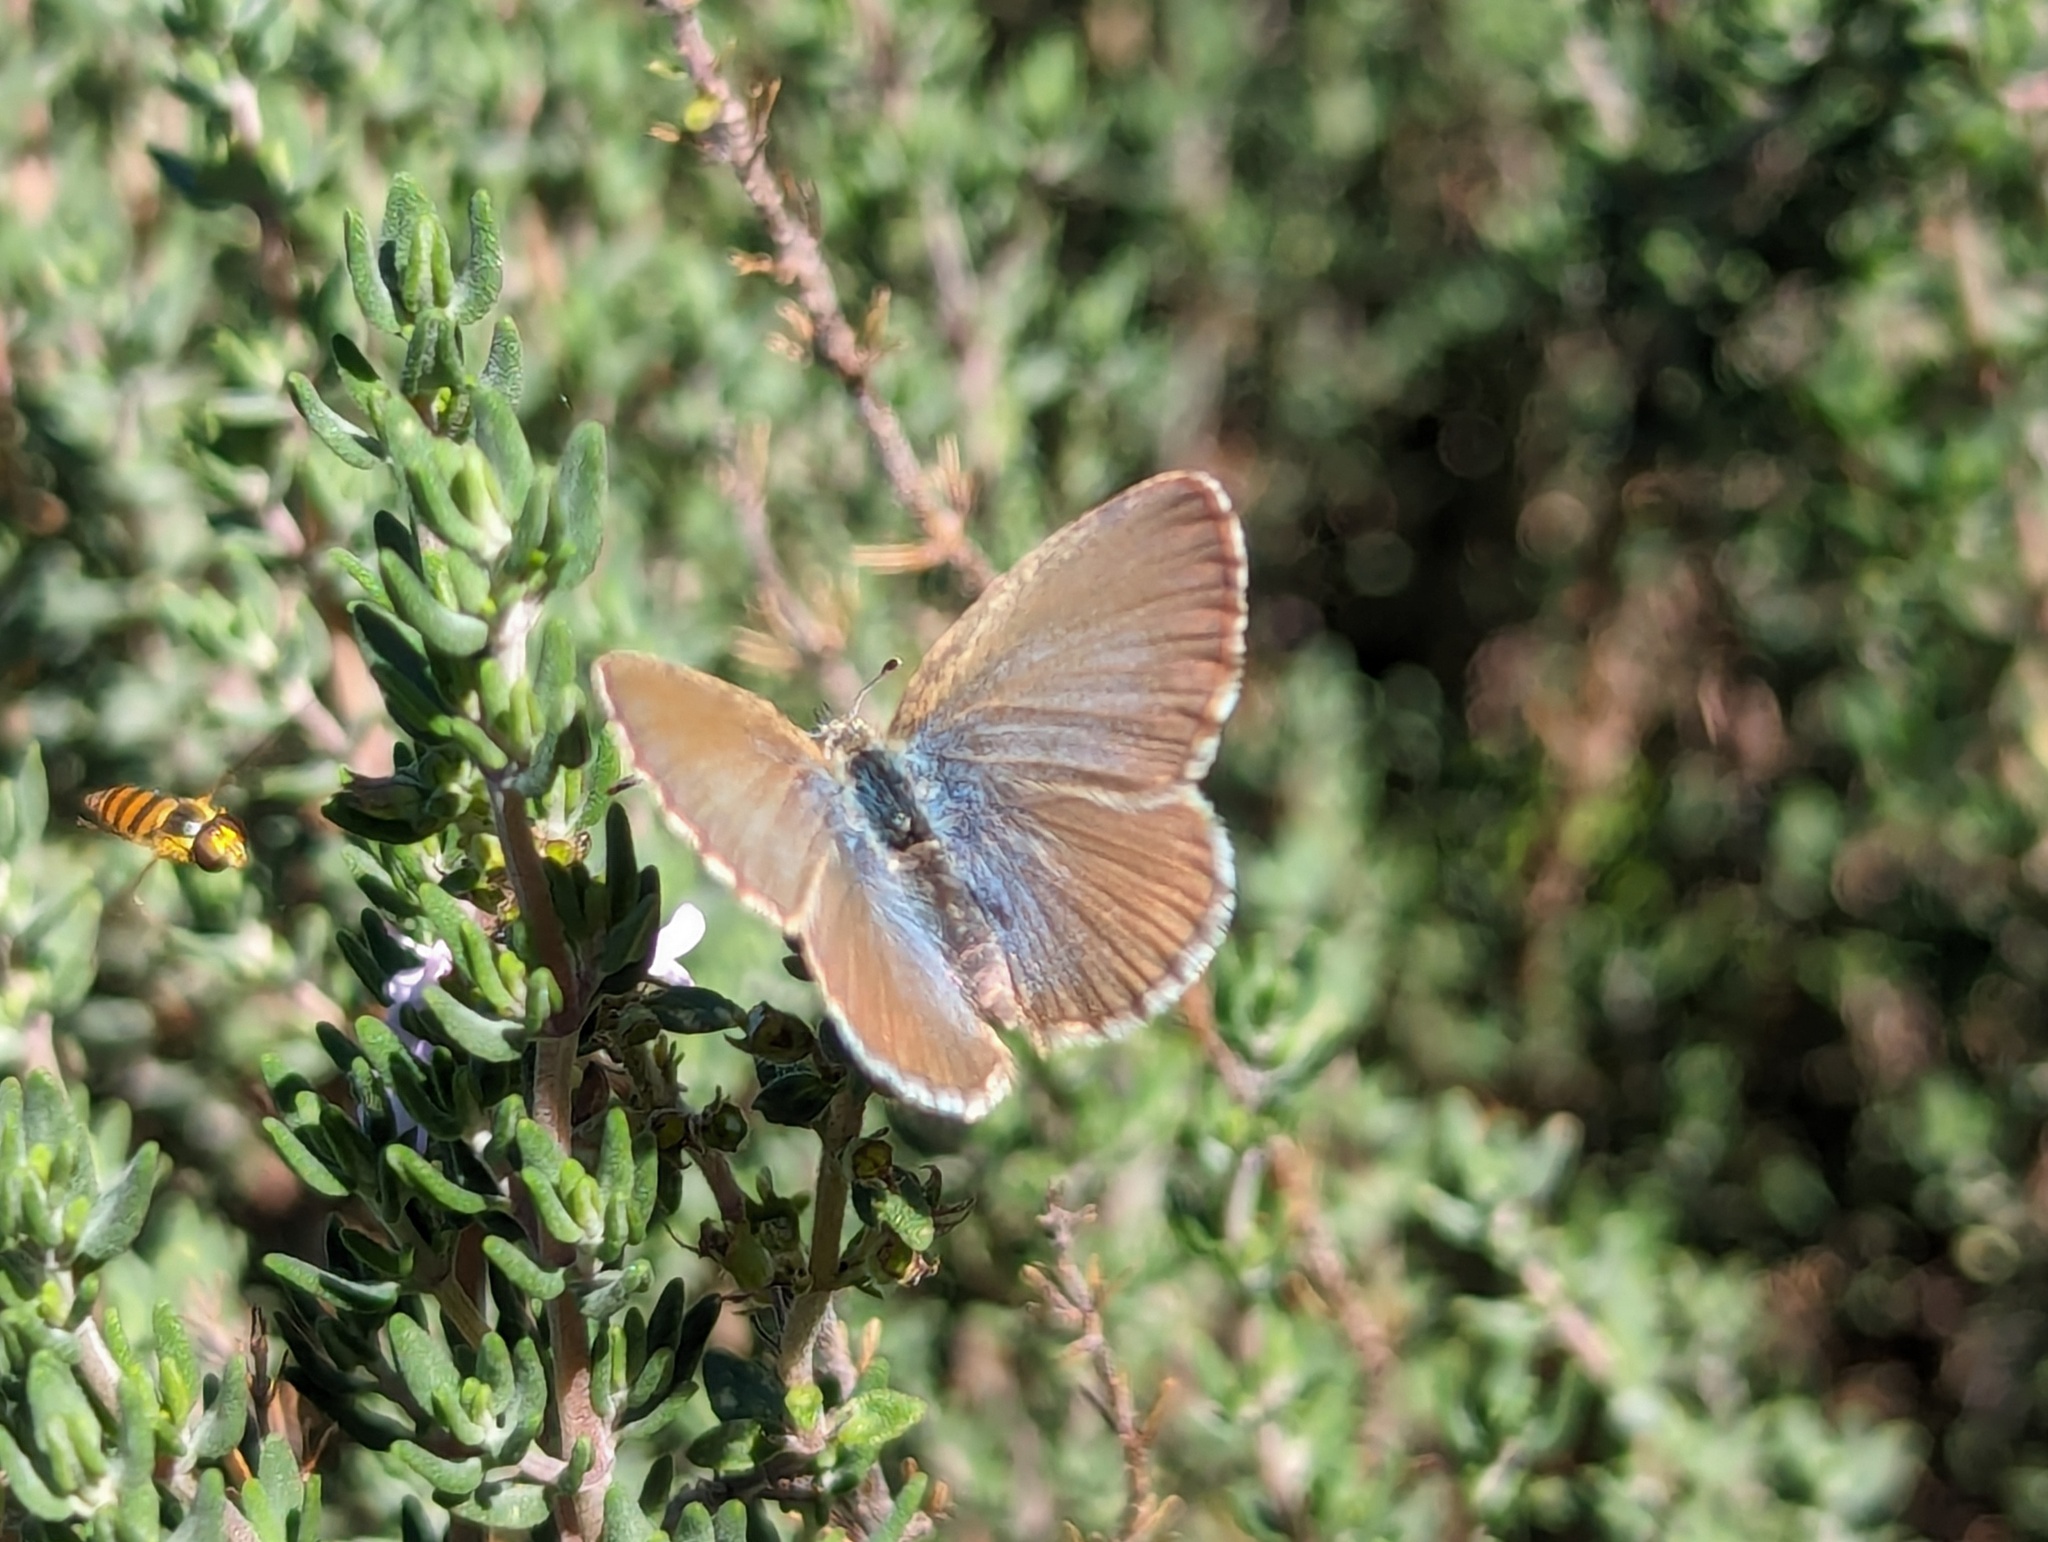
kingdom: Animalia
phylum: Arthropoda
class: Insecta
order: Lepidoptera
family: Lycaenidae
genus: Zizina
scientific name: Zizina labradus
